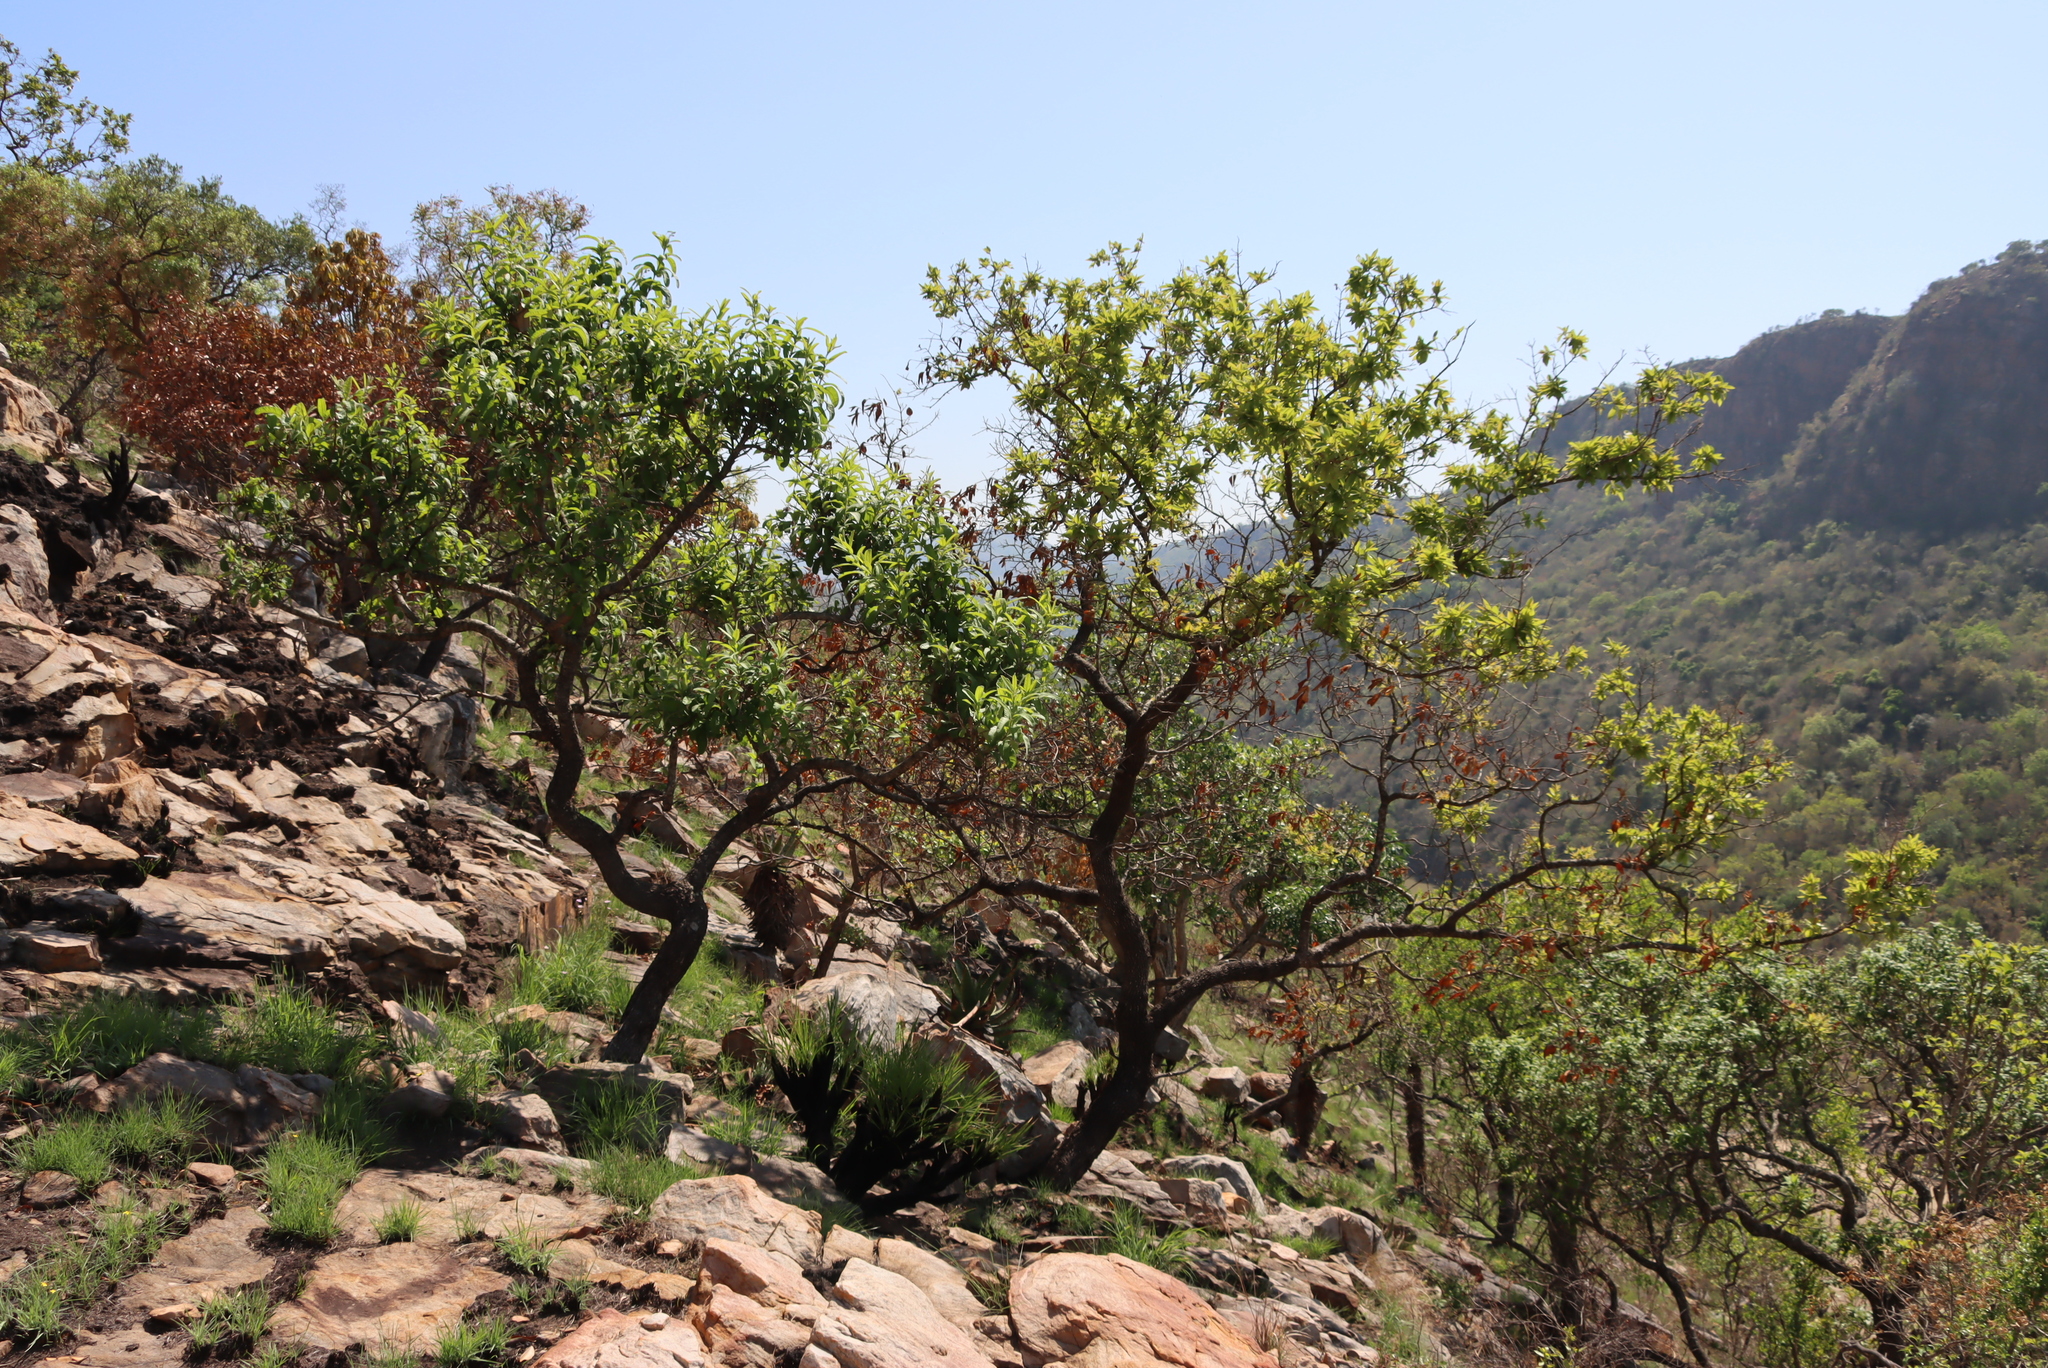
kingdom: Plantae
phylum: Tracheophyta
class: Magnoliopsida
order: Myrtales
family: Combretaceae
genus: Combretum
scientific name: Combretum molle
